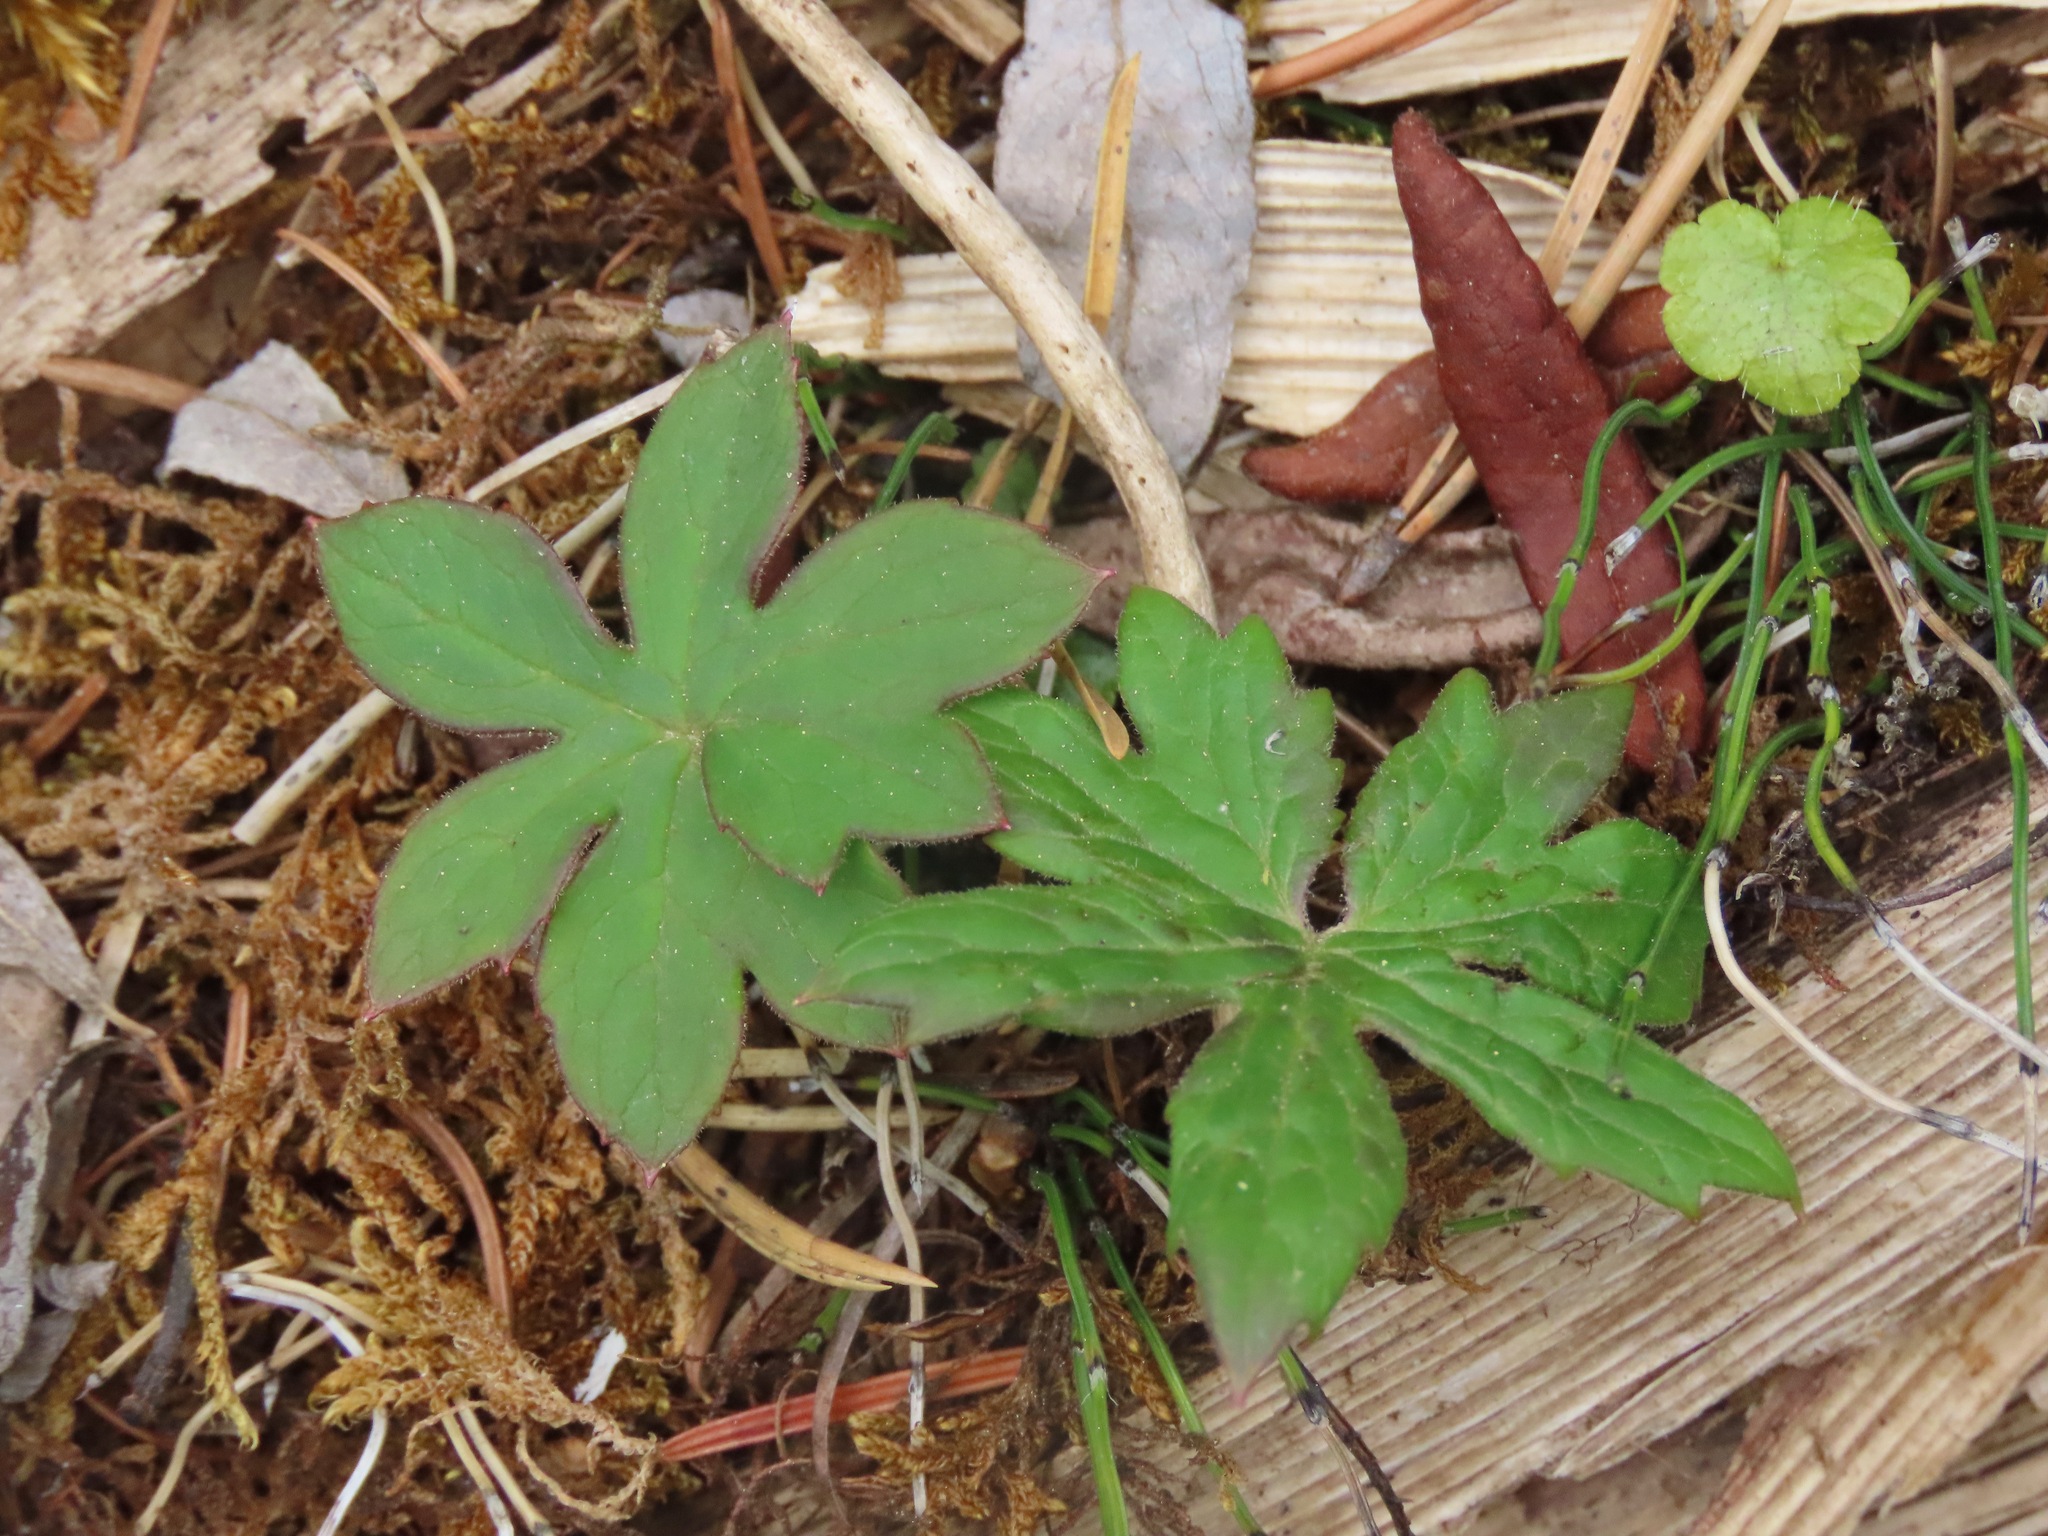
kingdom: Plantae
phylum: Tracheophyta
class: Magnoliopsida
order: Asterales
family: Asteraceae
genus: Petasites
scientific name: Petasites frigidus
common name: Arctic butterbur
